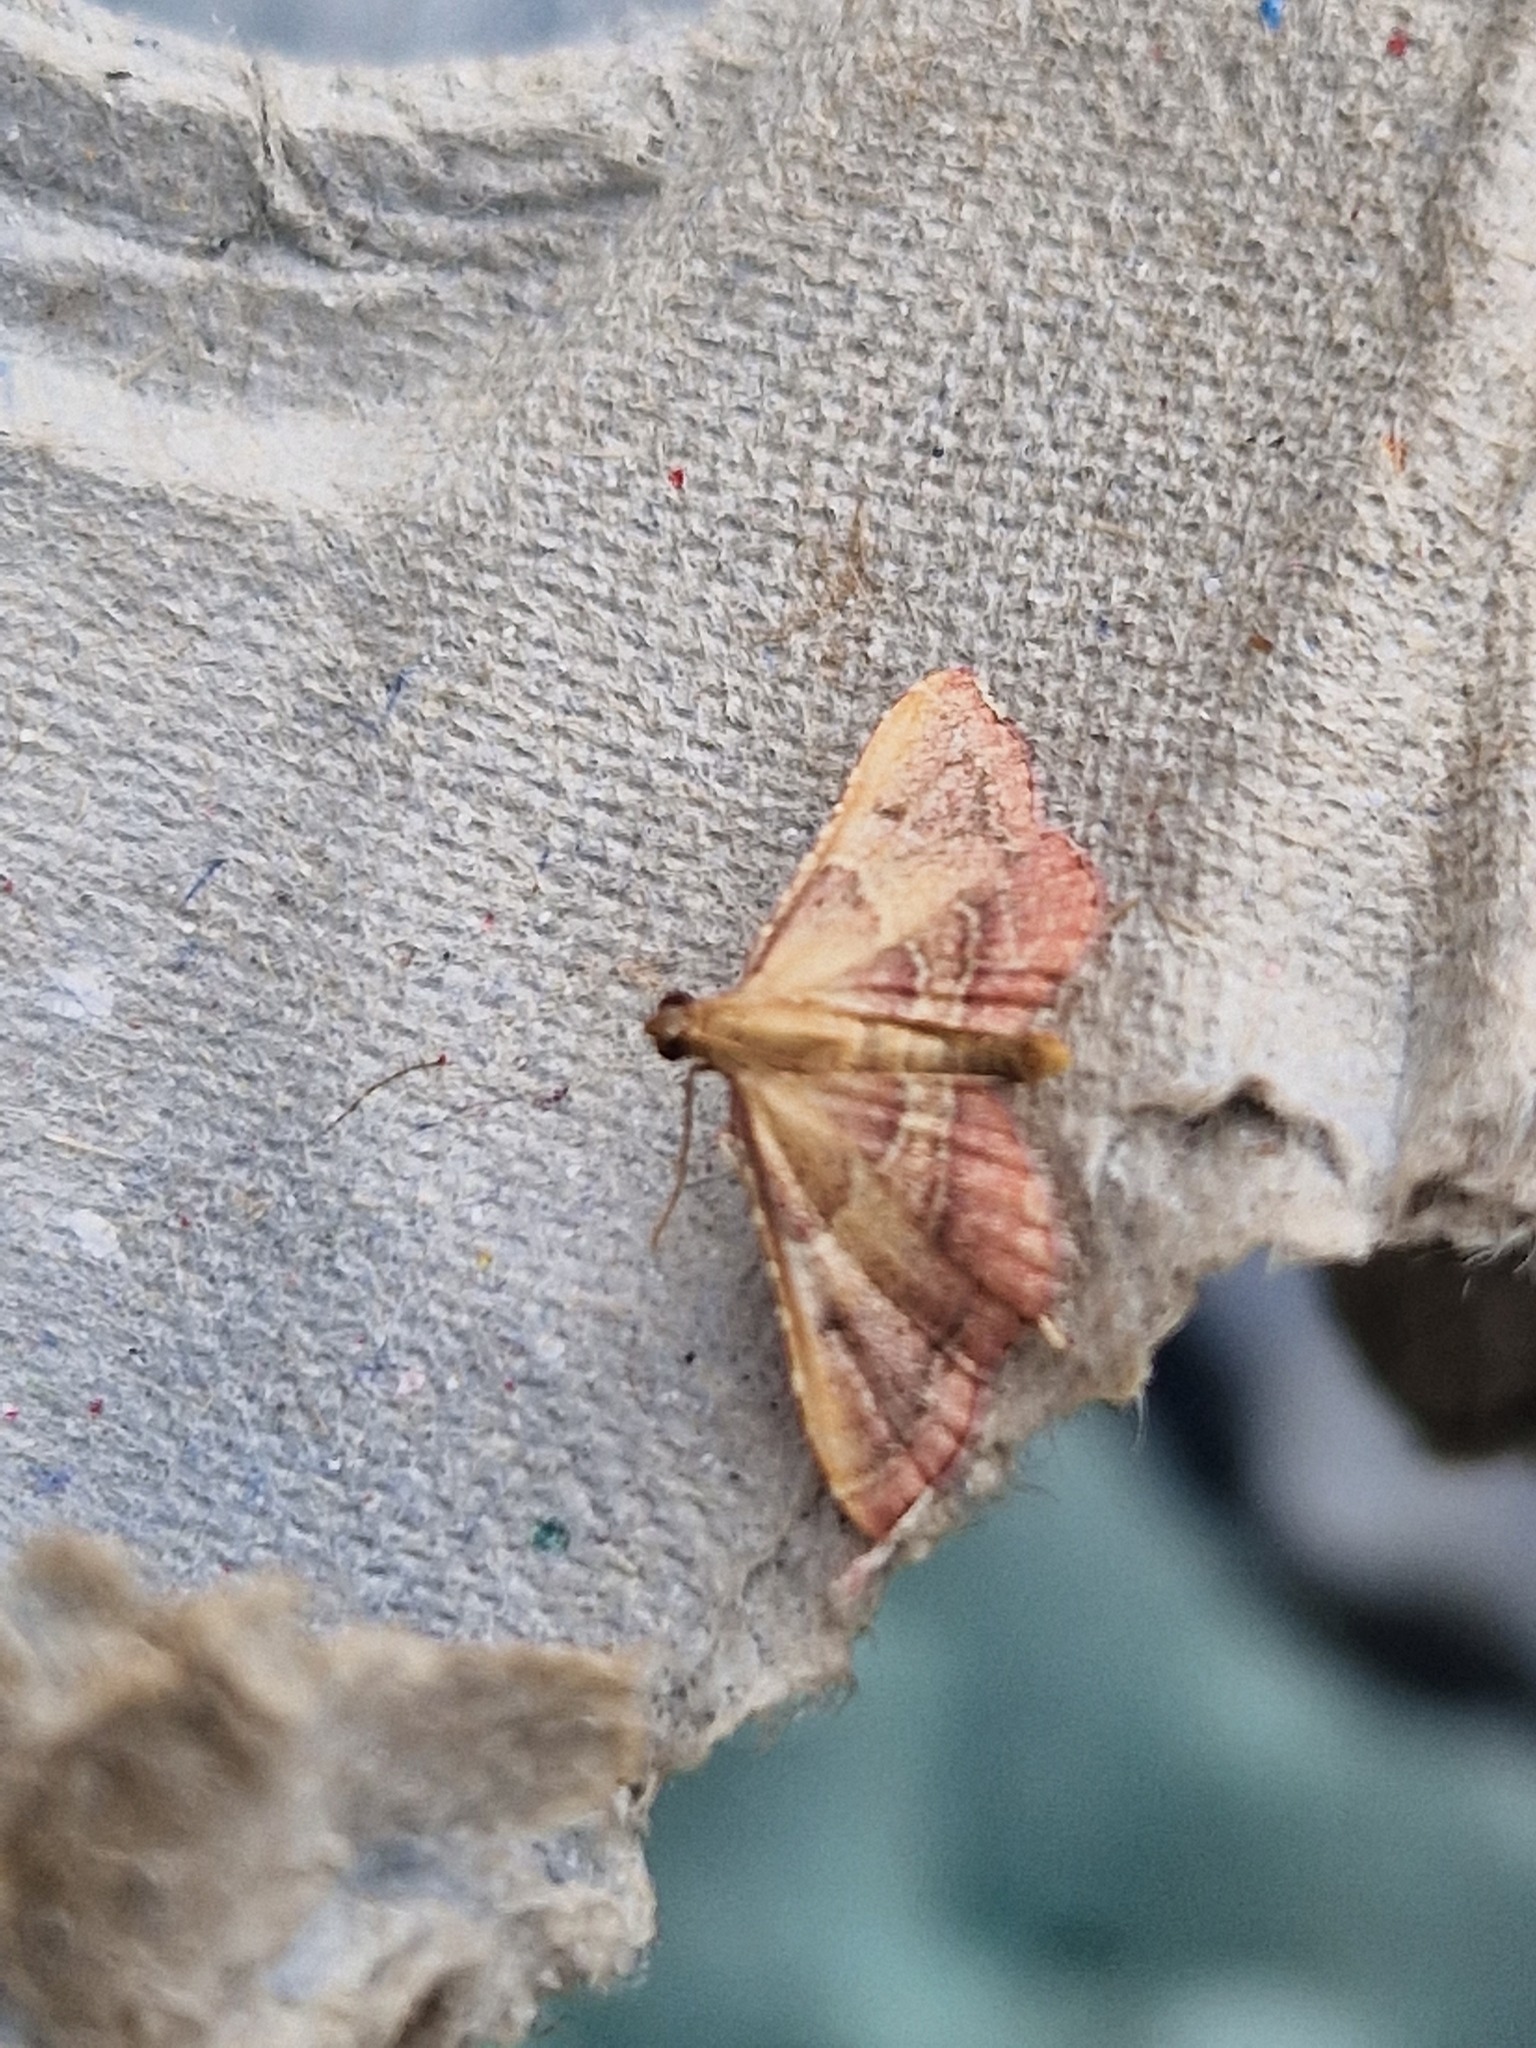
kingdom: Animalia
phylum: Arthropoda
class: Insecta
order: Lepidoptera
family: Pyralidae
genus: Endotricha
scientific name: Endotricha flammealis
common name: Rosy tabby
